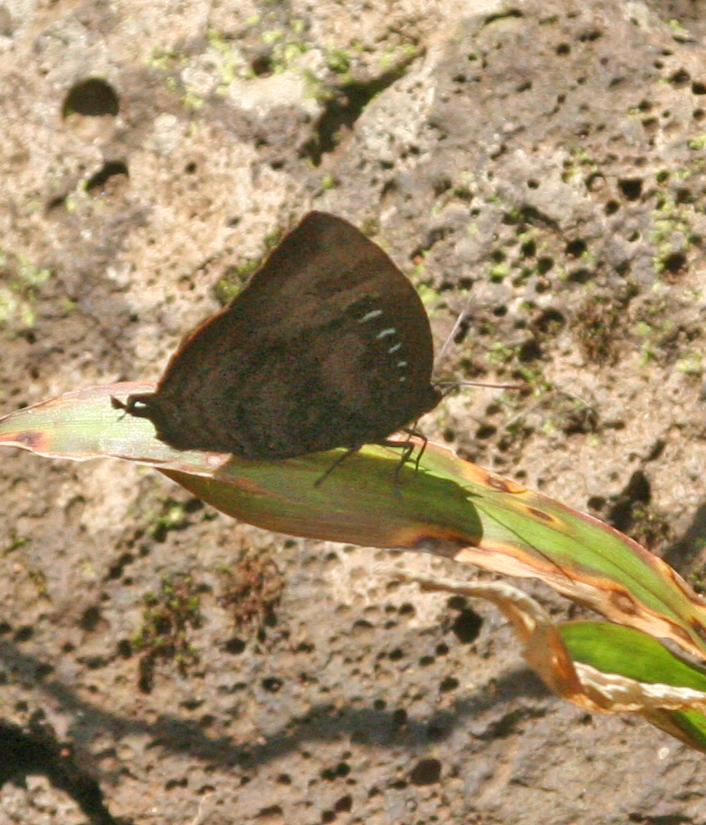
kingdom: Animalia
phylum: Arthropoda
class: Insecta
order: Lepidoptera
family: Lycaenidae
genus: Arhopala
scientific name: Arhopala centaurus
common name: Dull oak-blue
